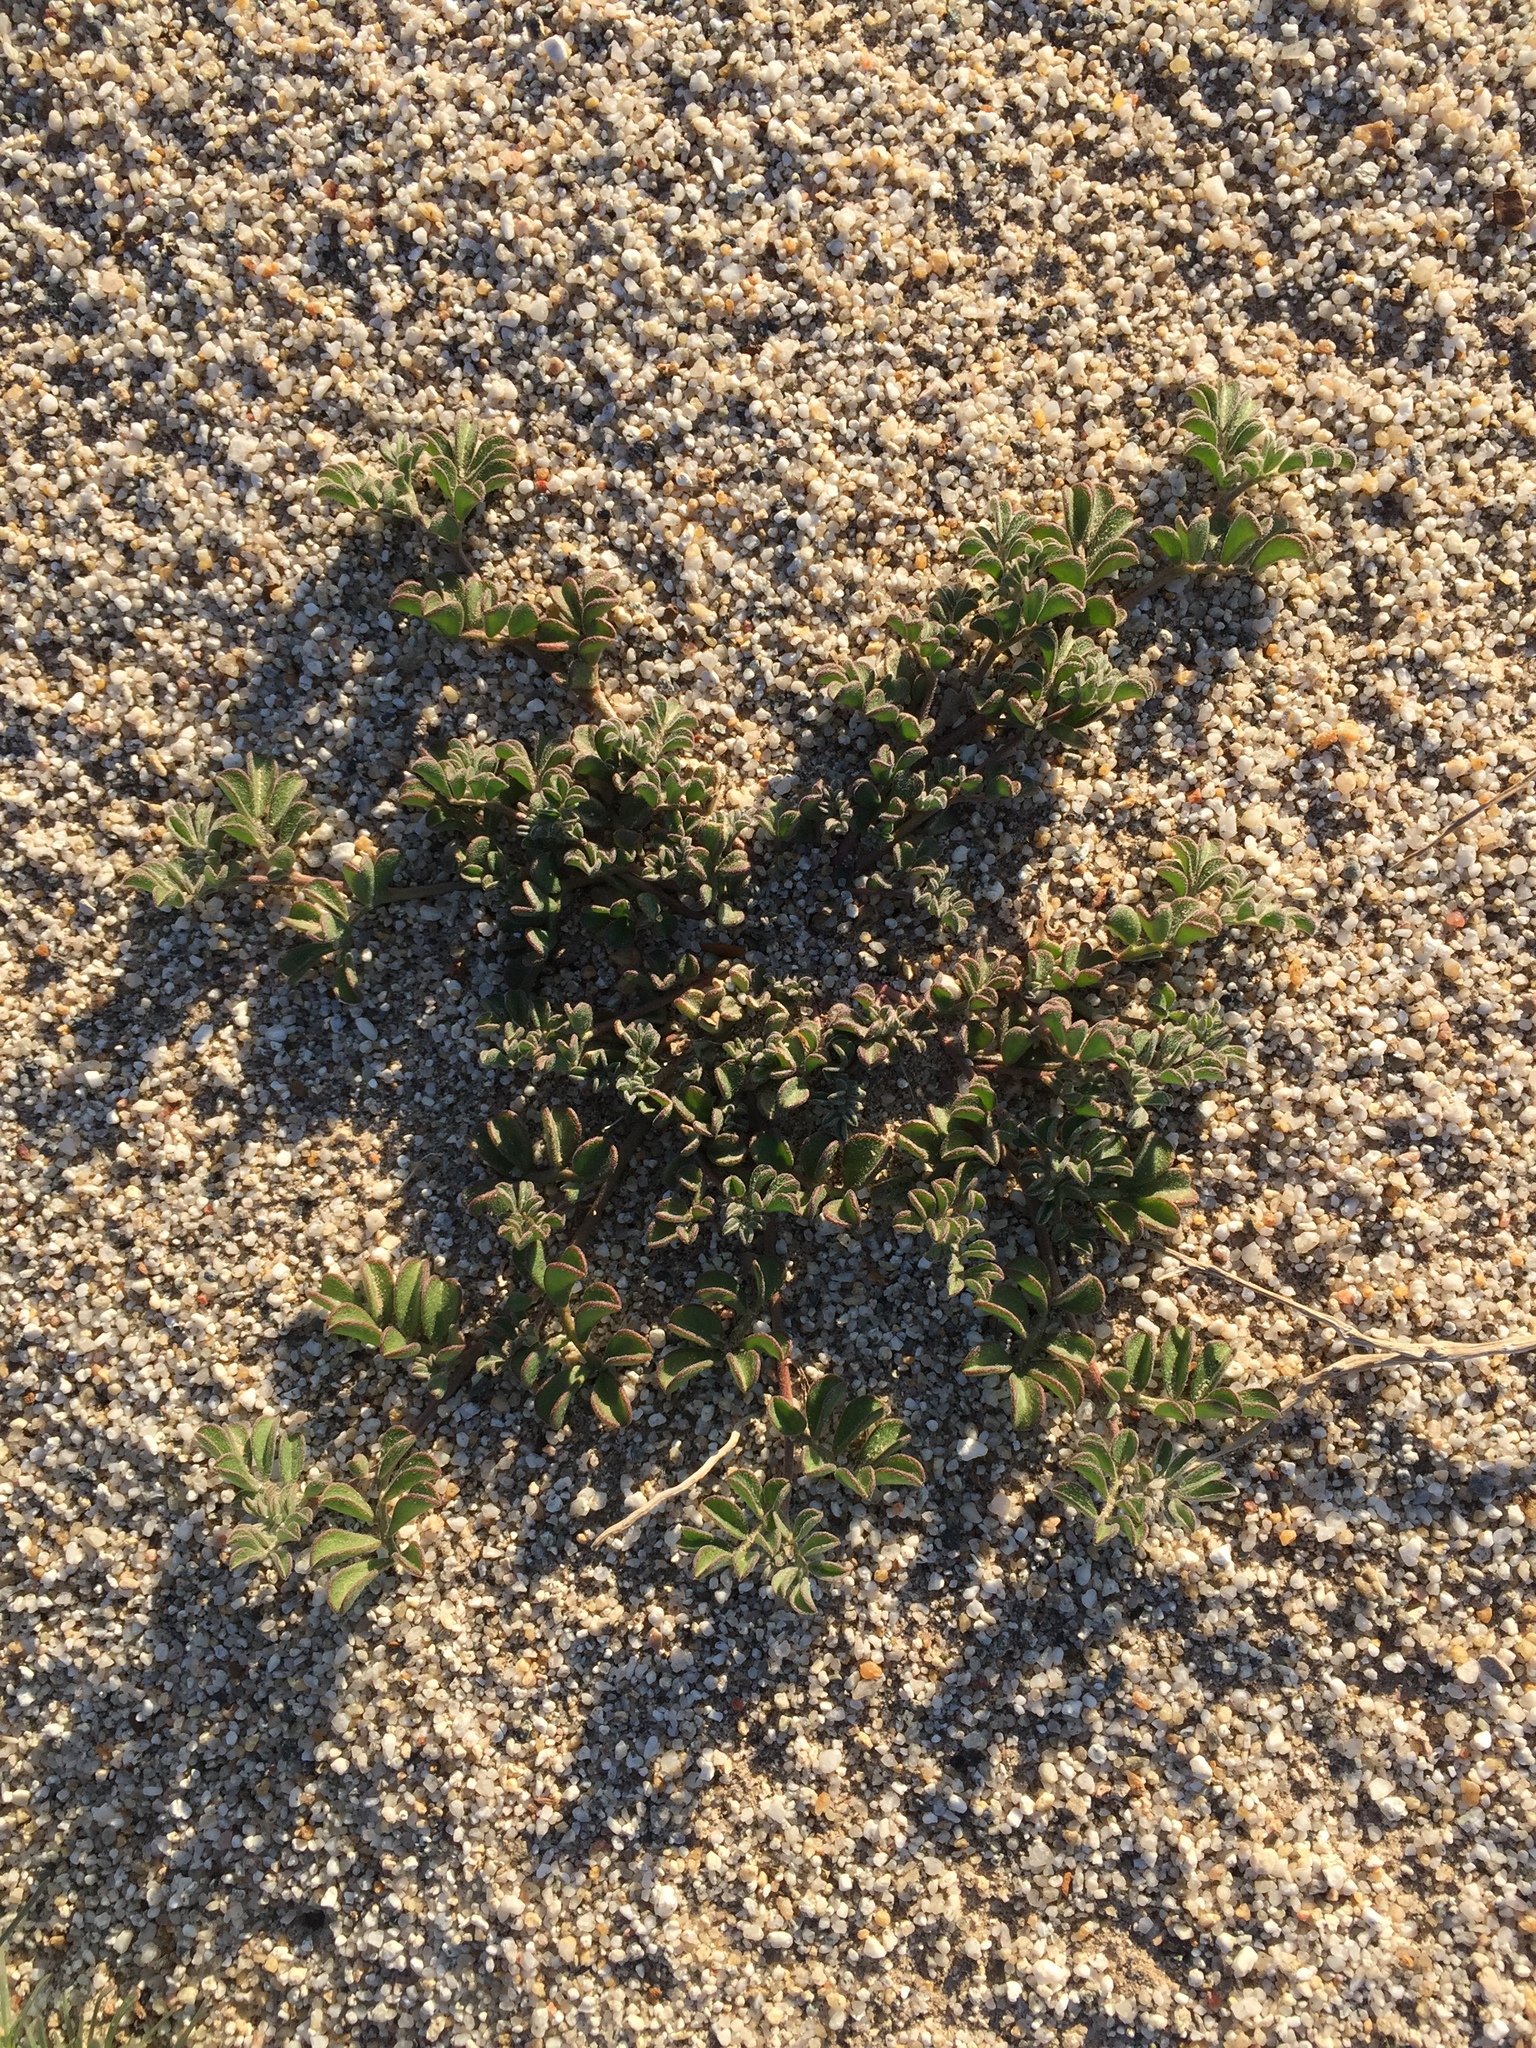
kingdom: Plantae
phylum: Tracheophyta
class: Magnoliopsida
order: Fabales
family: Fabaceae
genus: Acmispon
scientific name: Acmispon strigosus
